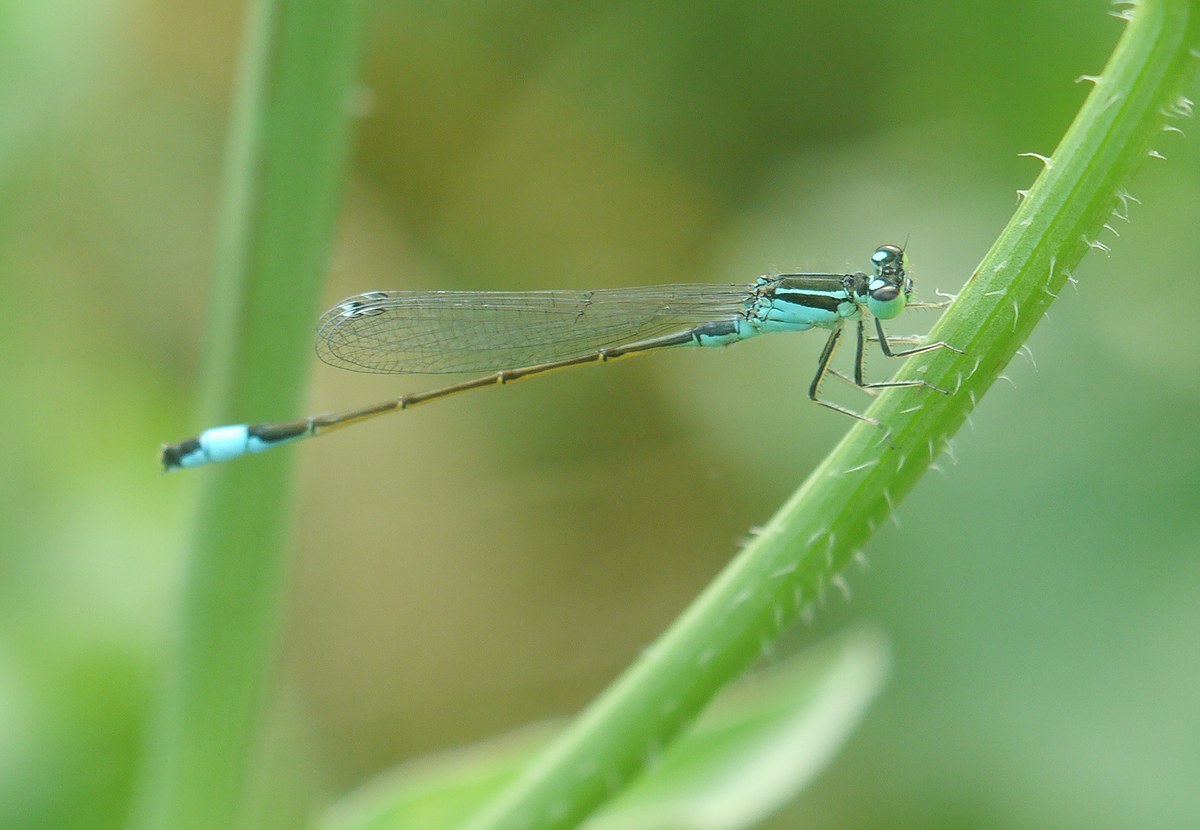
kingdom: Animalia
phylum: Arthropoda
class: Insecta
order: Odonata
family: Coenagrionidae
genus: Ischnura
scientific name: Ischnura elegans
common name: Blue-tailed damselfly
